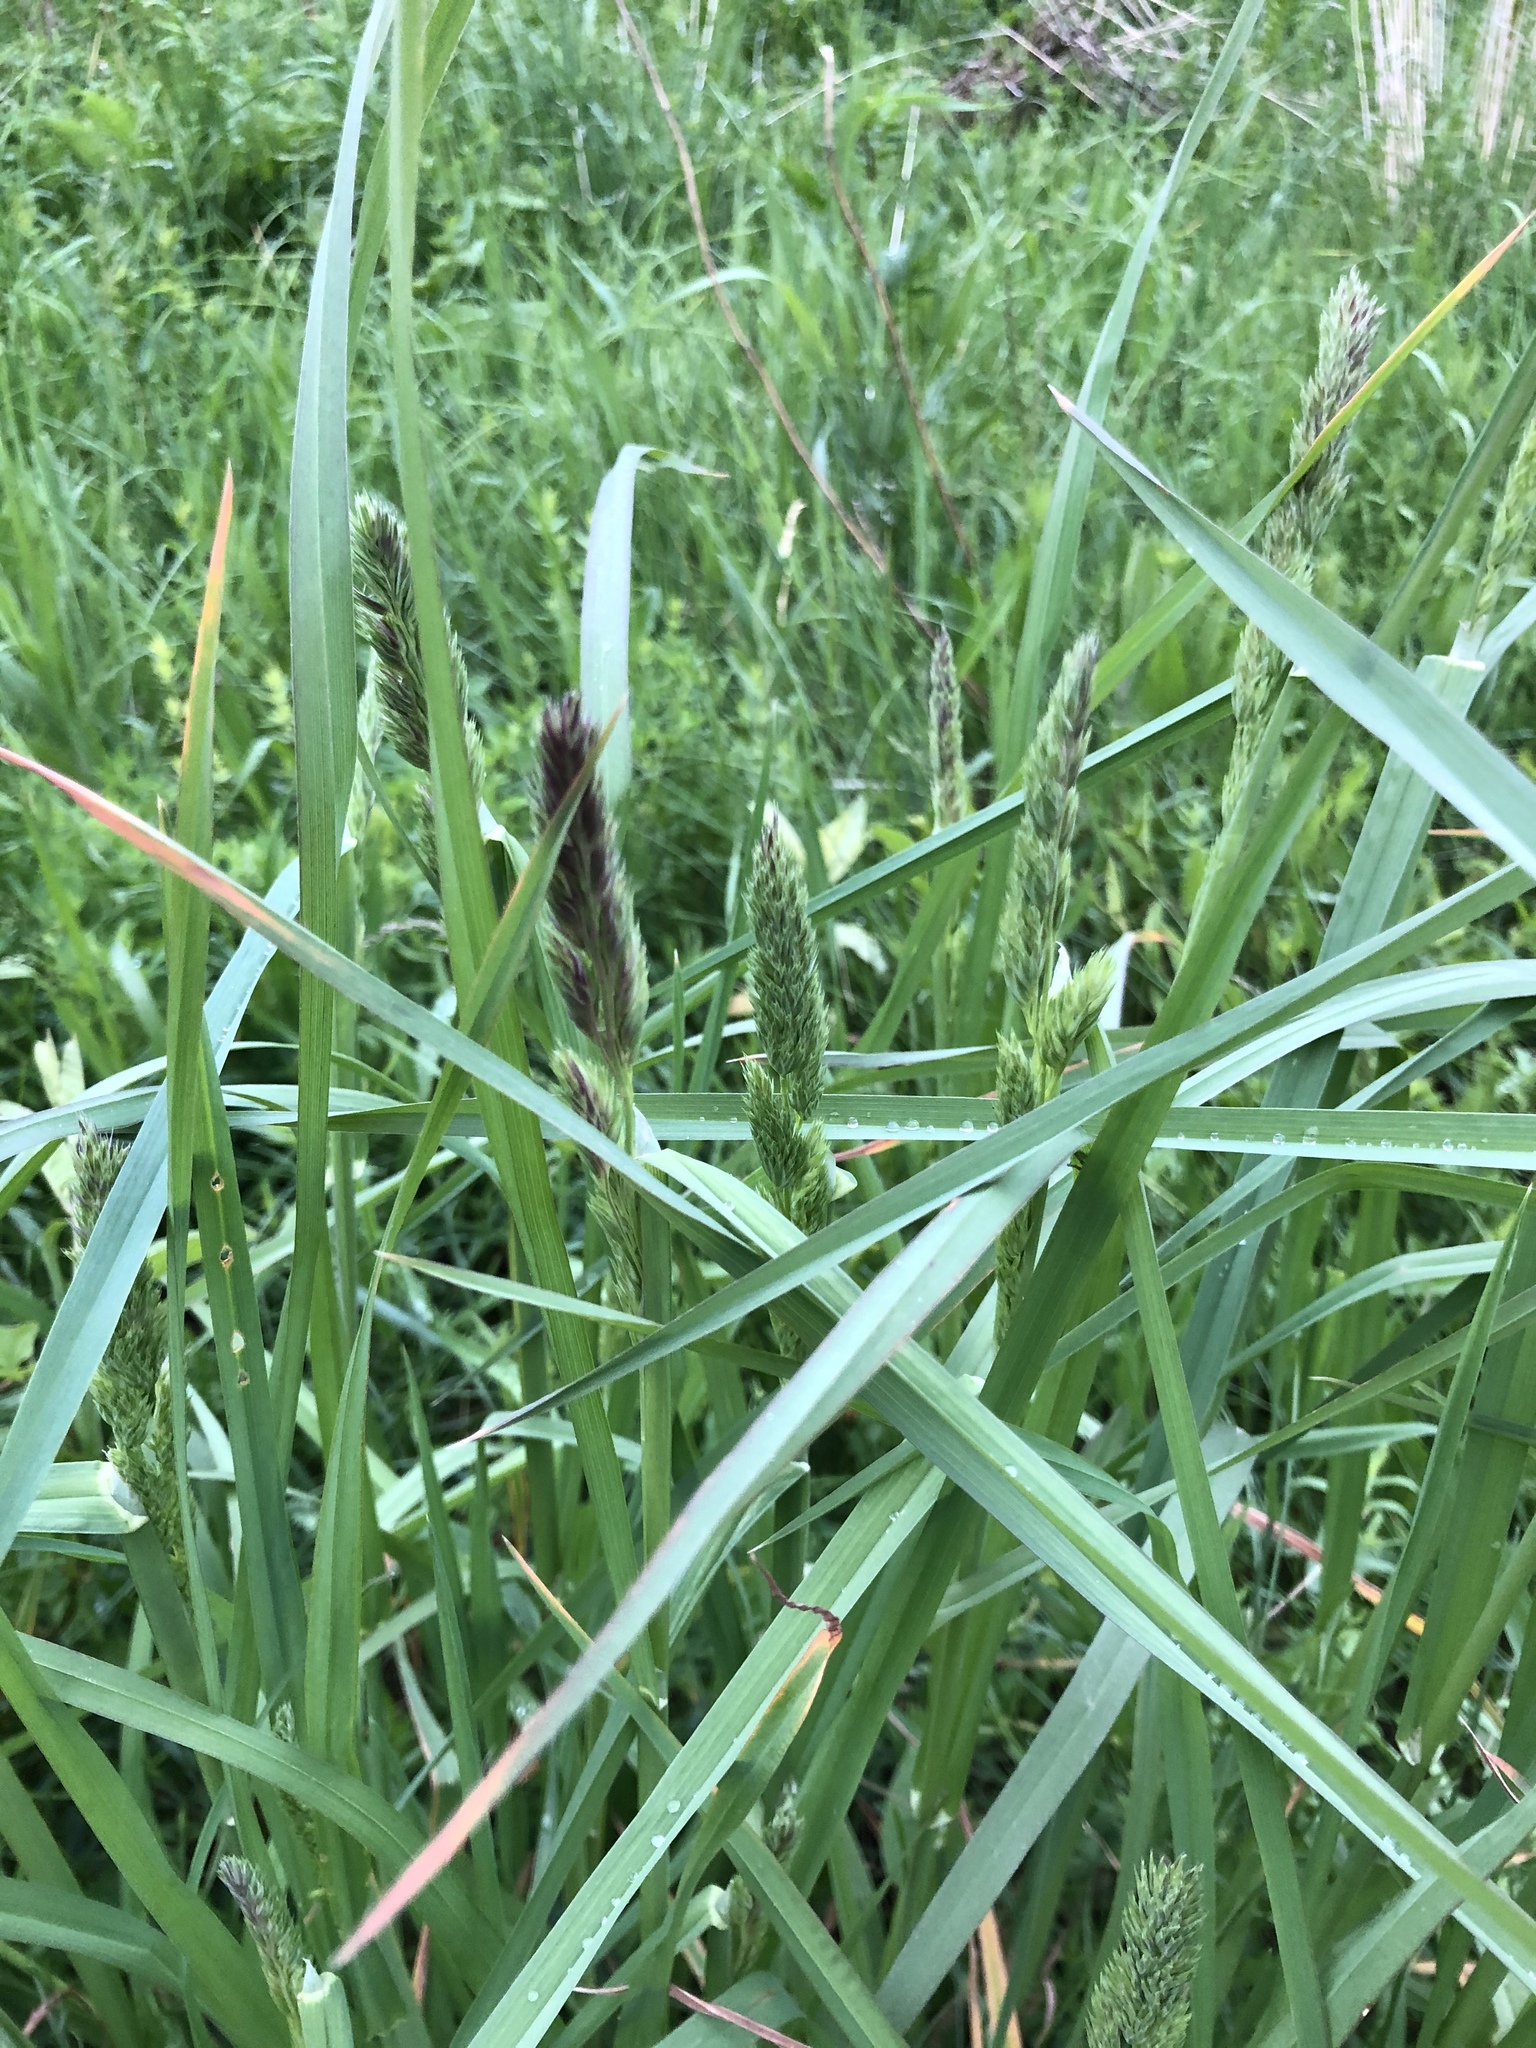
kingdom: Plantae
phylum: Tracheophyta
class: Liliopsida
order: Poales
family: Poaceae
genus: Dactylis
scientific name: Dactylis glomerata
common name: Orchardgrass
